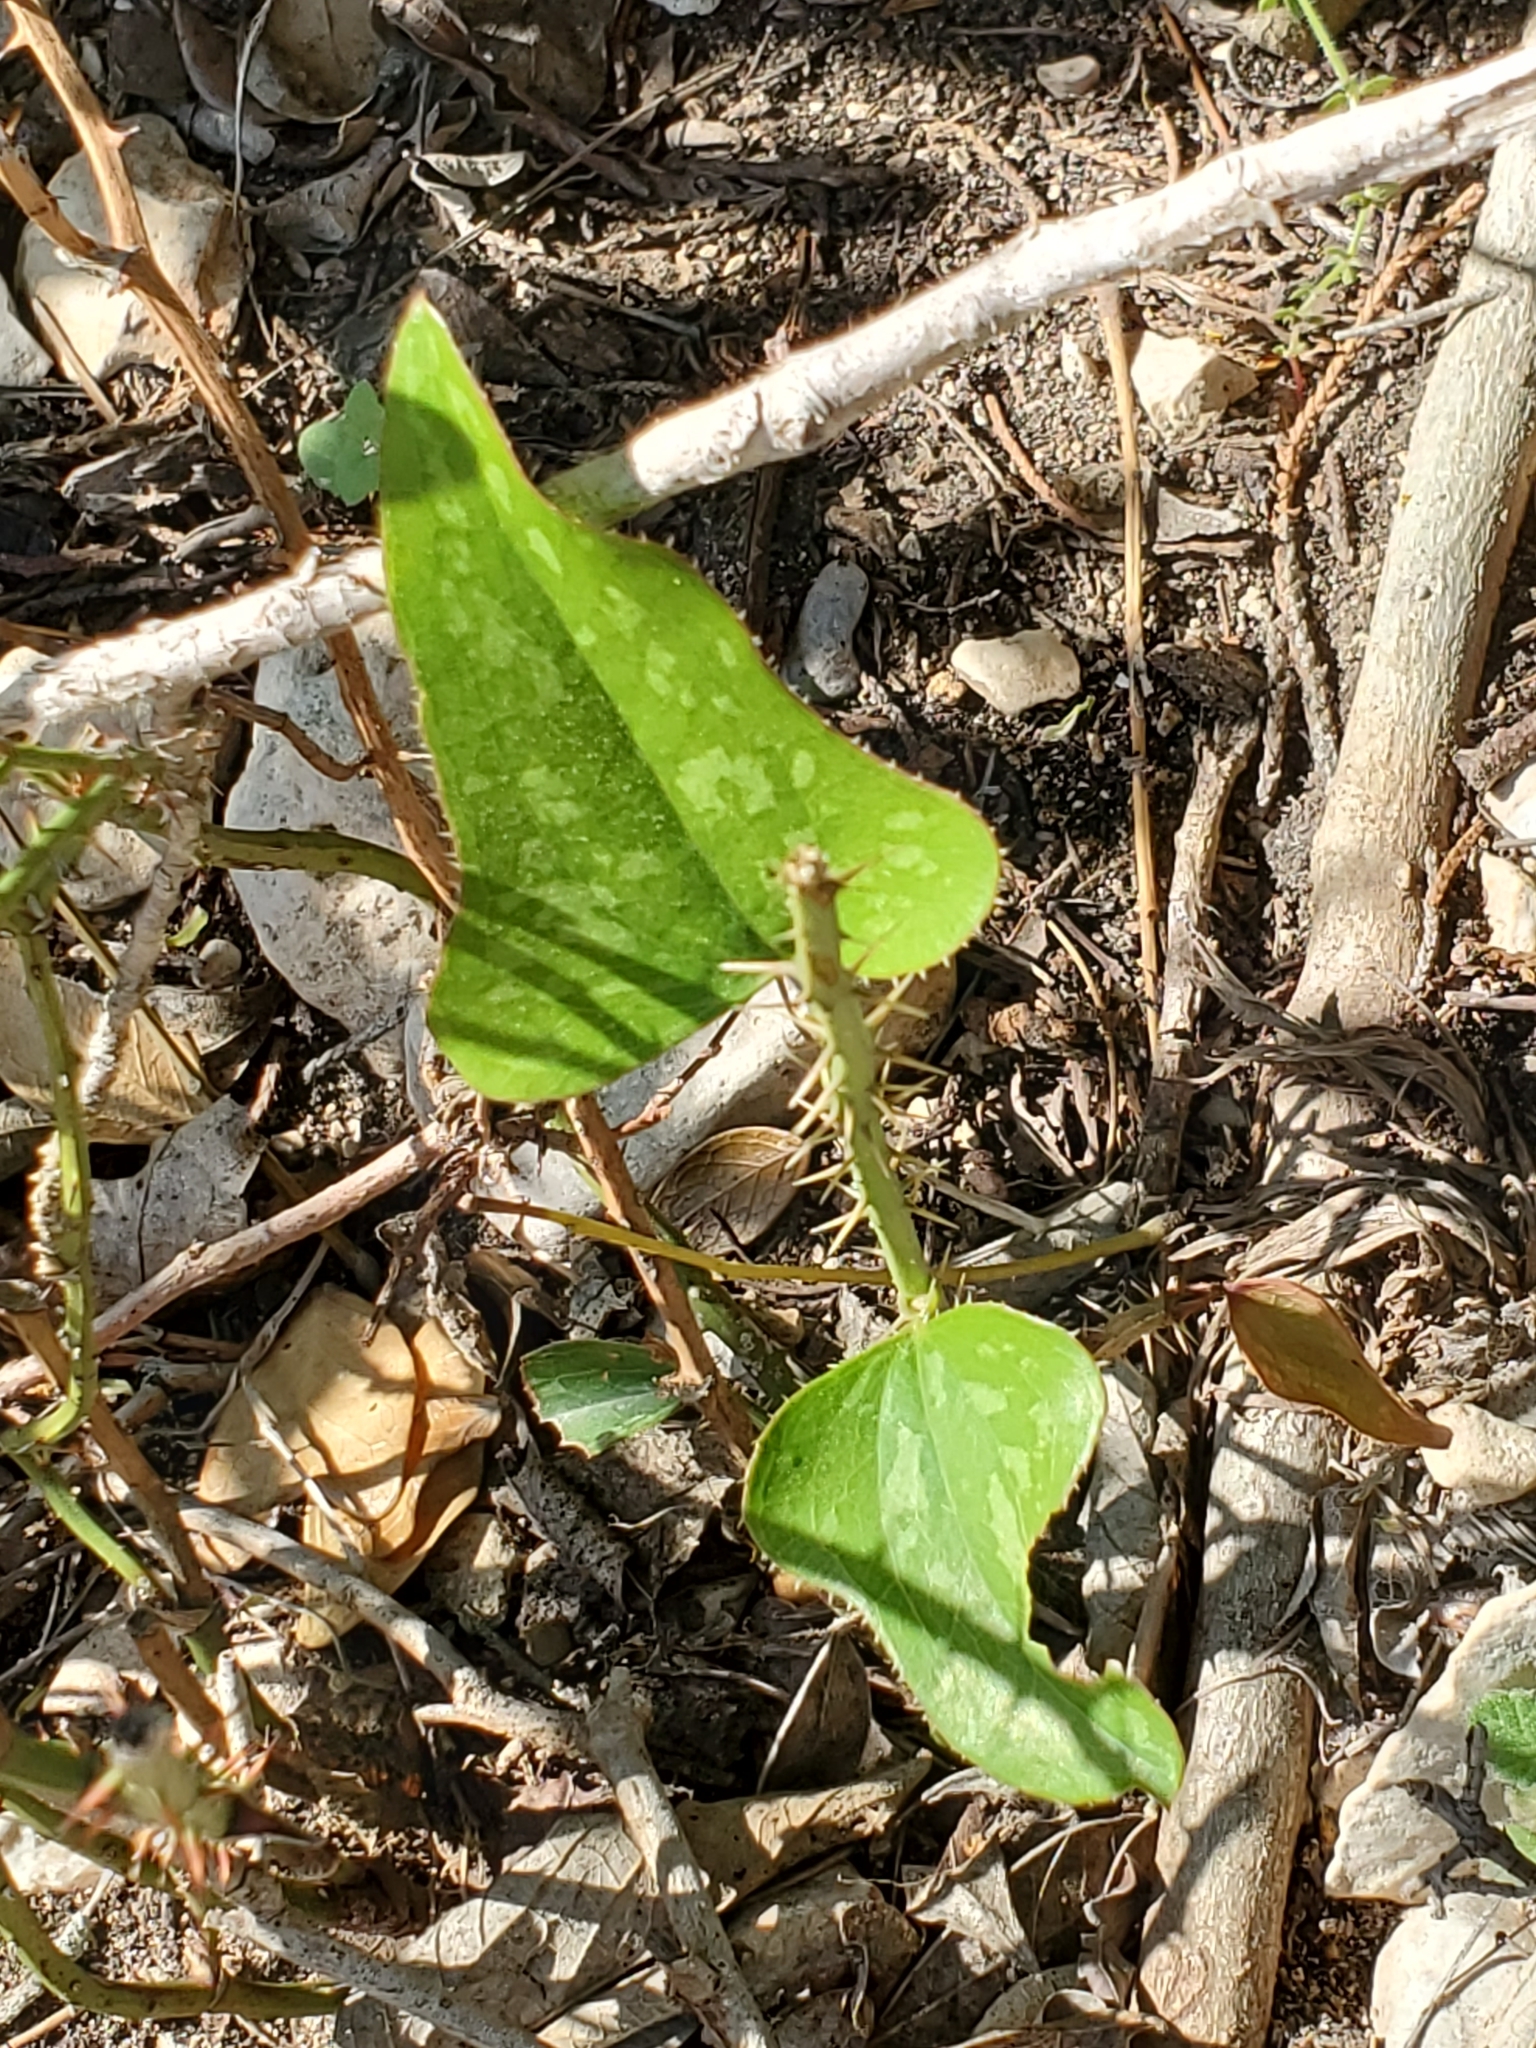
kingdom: Plantae
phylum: Tracheophyta
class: Liliopsida
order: Liliales
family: Smilacaceae
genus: Smilax
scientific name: Smilax bona-nox
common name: Catbrier
